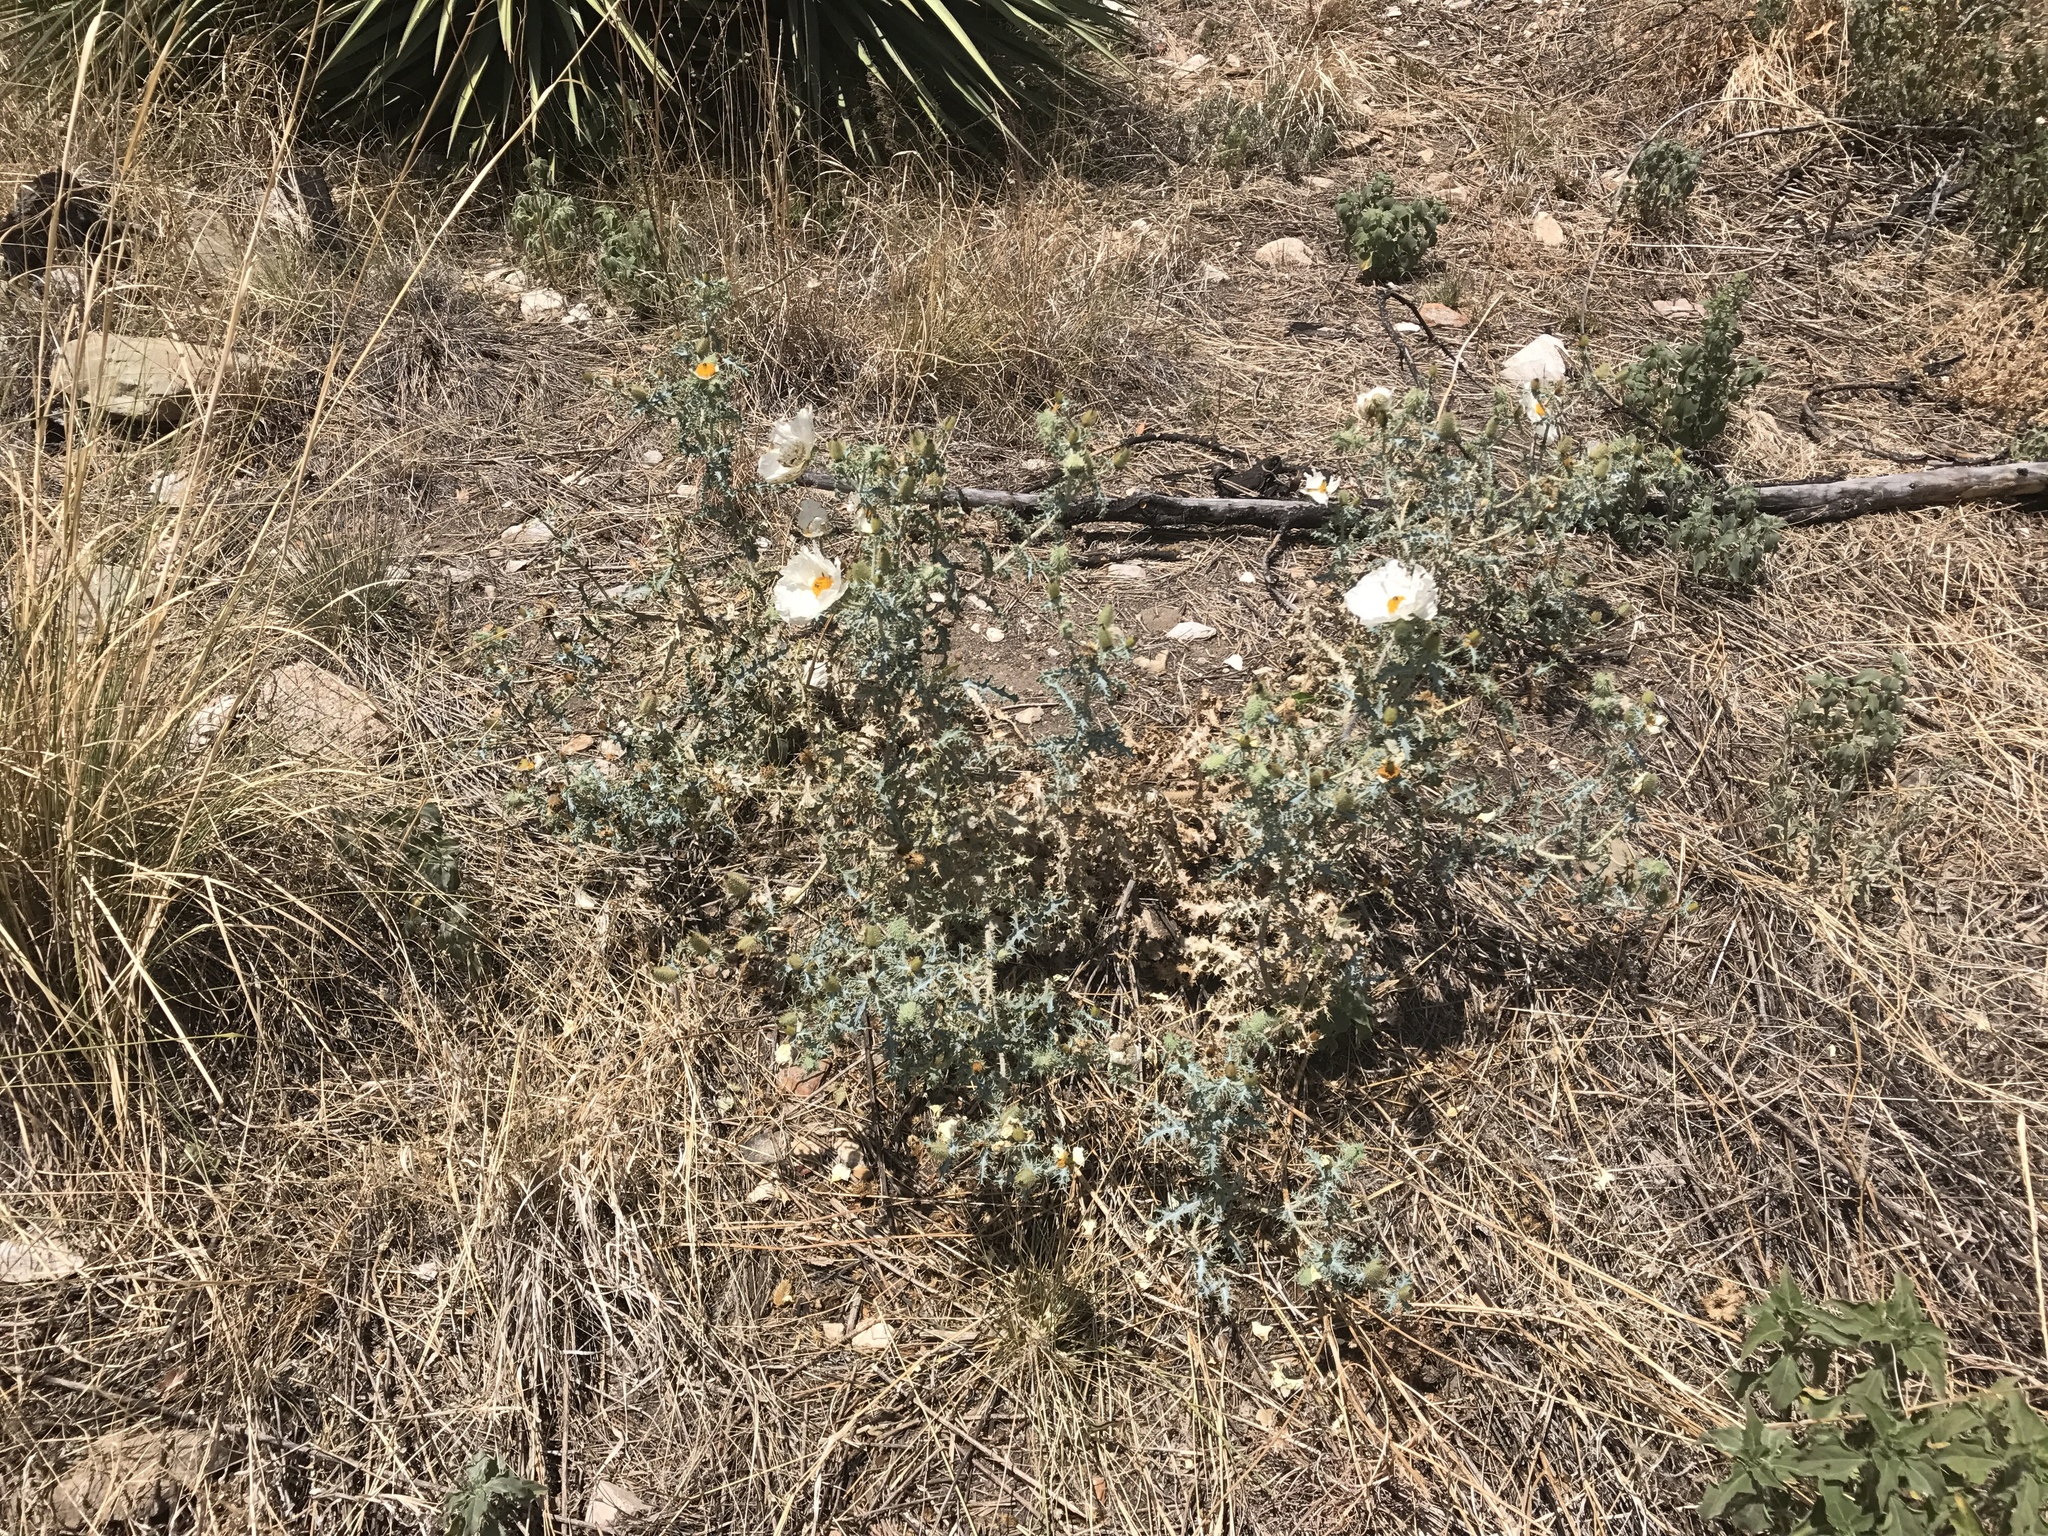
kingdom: Plantae
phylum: Tracheophyta
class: Magnoliopsida
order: Ranunculales
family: Papaveraceae
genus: Argemone
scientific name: Argemone pleiacantha
